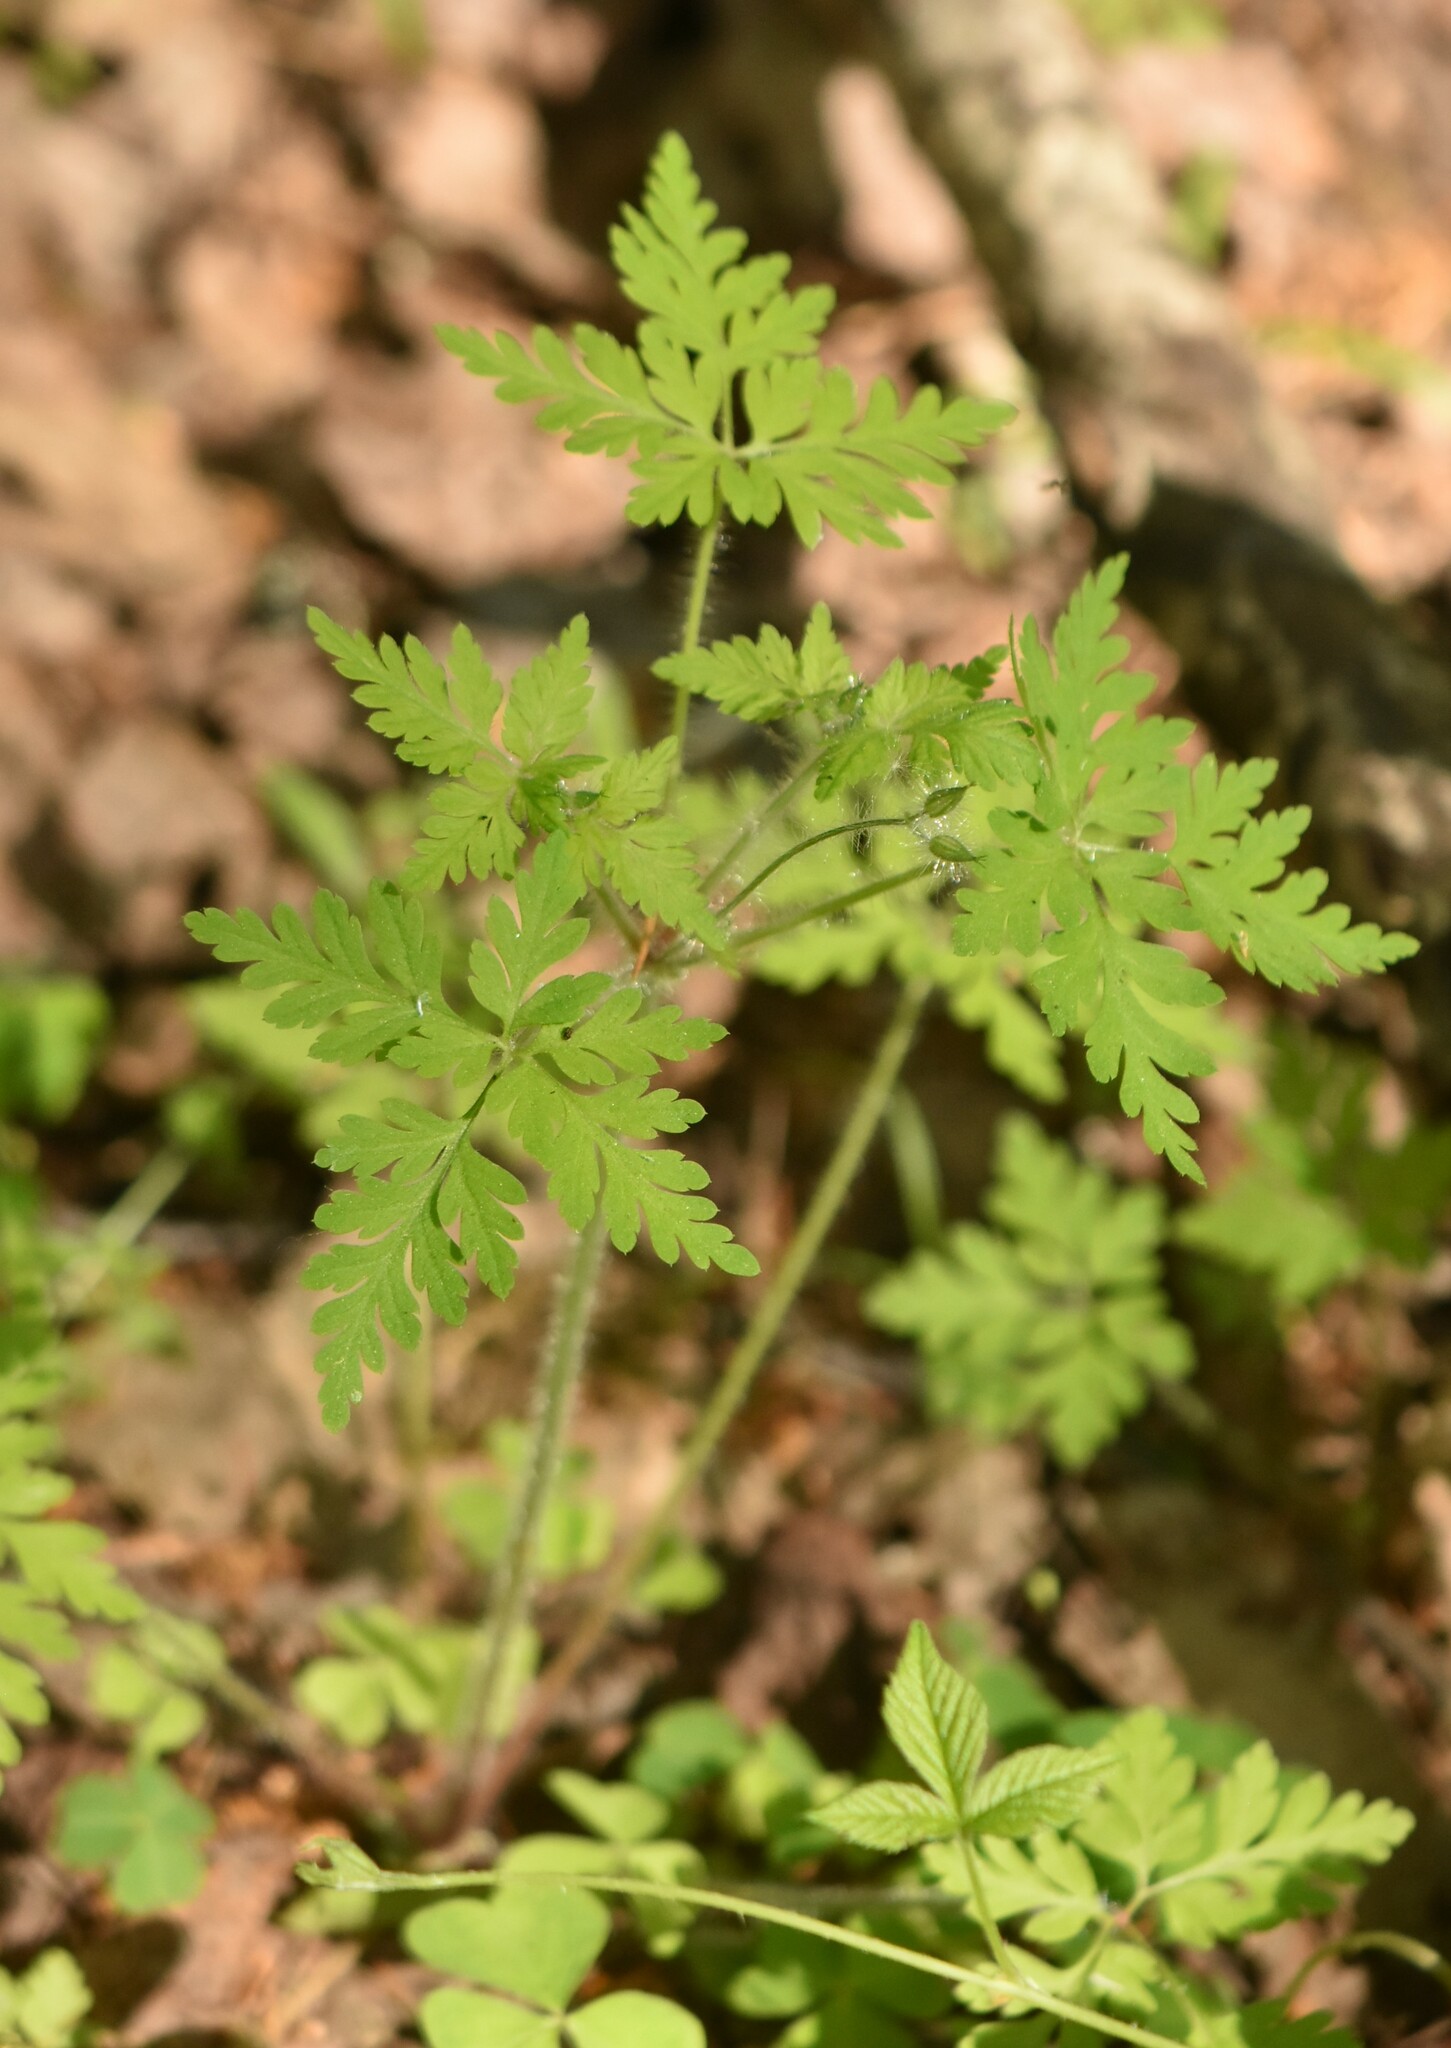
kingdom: Plantae
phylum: Tracheophyta
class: Magnoliopsida
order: Geraniales
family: Geraniaceae
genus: Geranium
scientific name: Geranium robertianum
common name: Herb-robert
